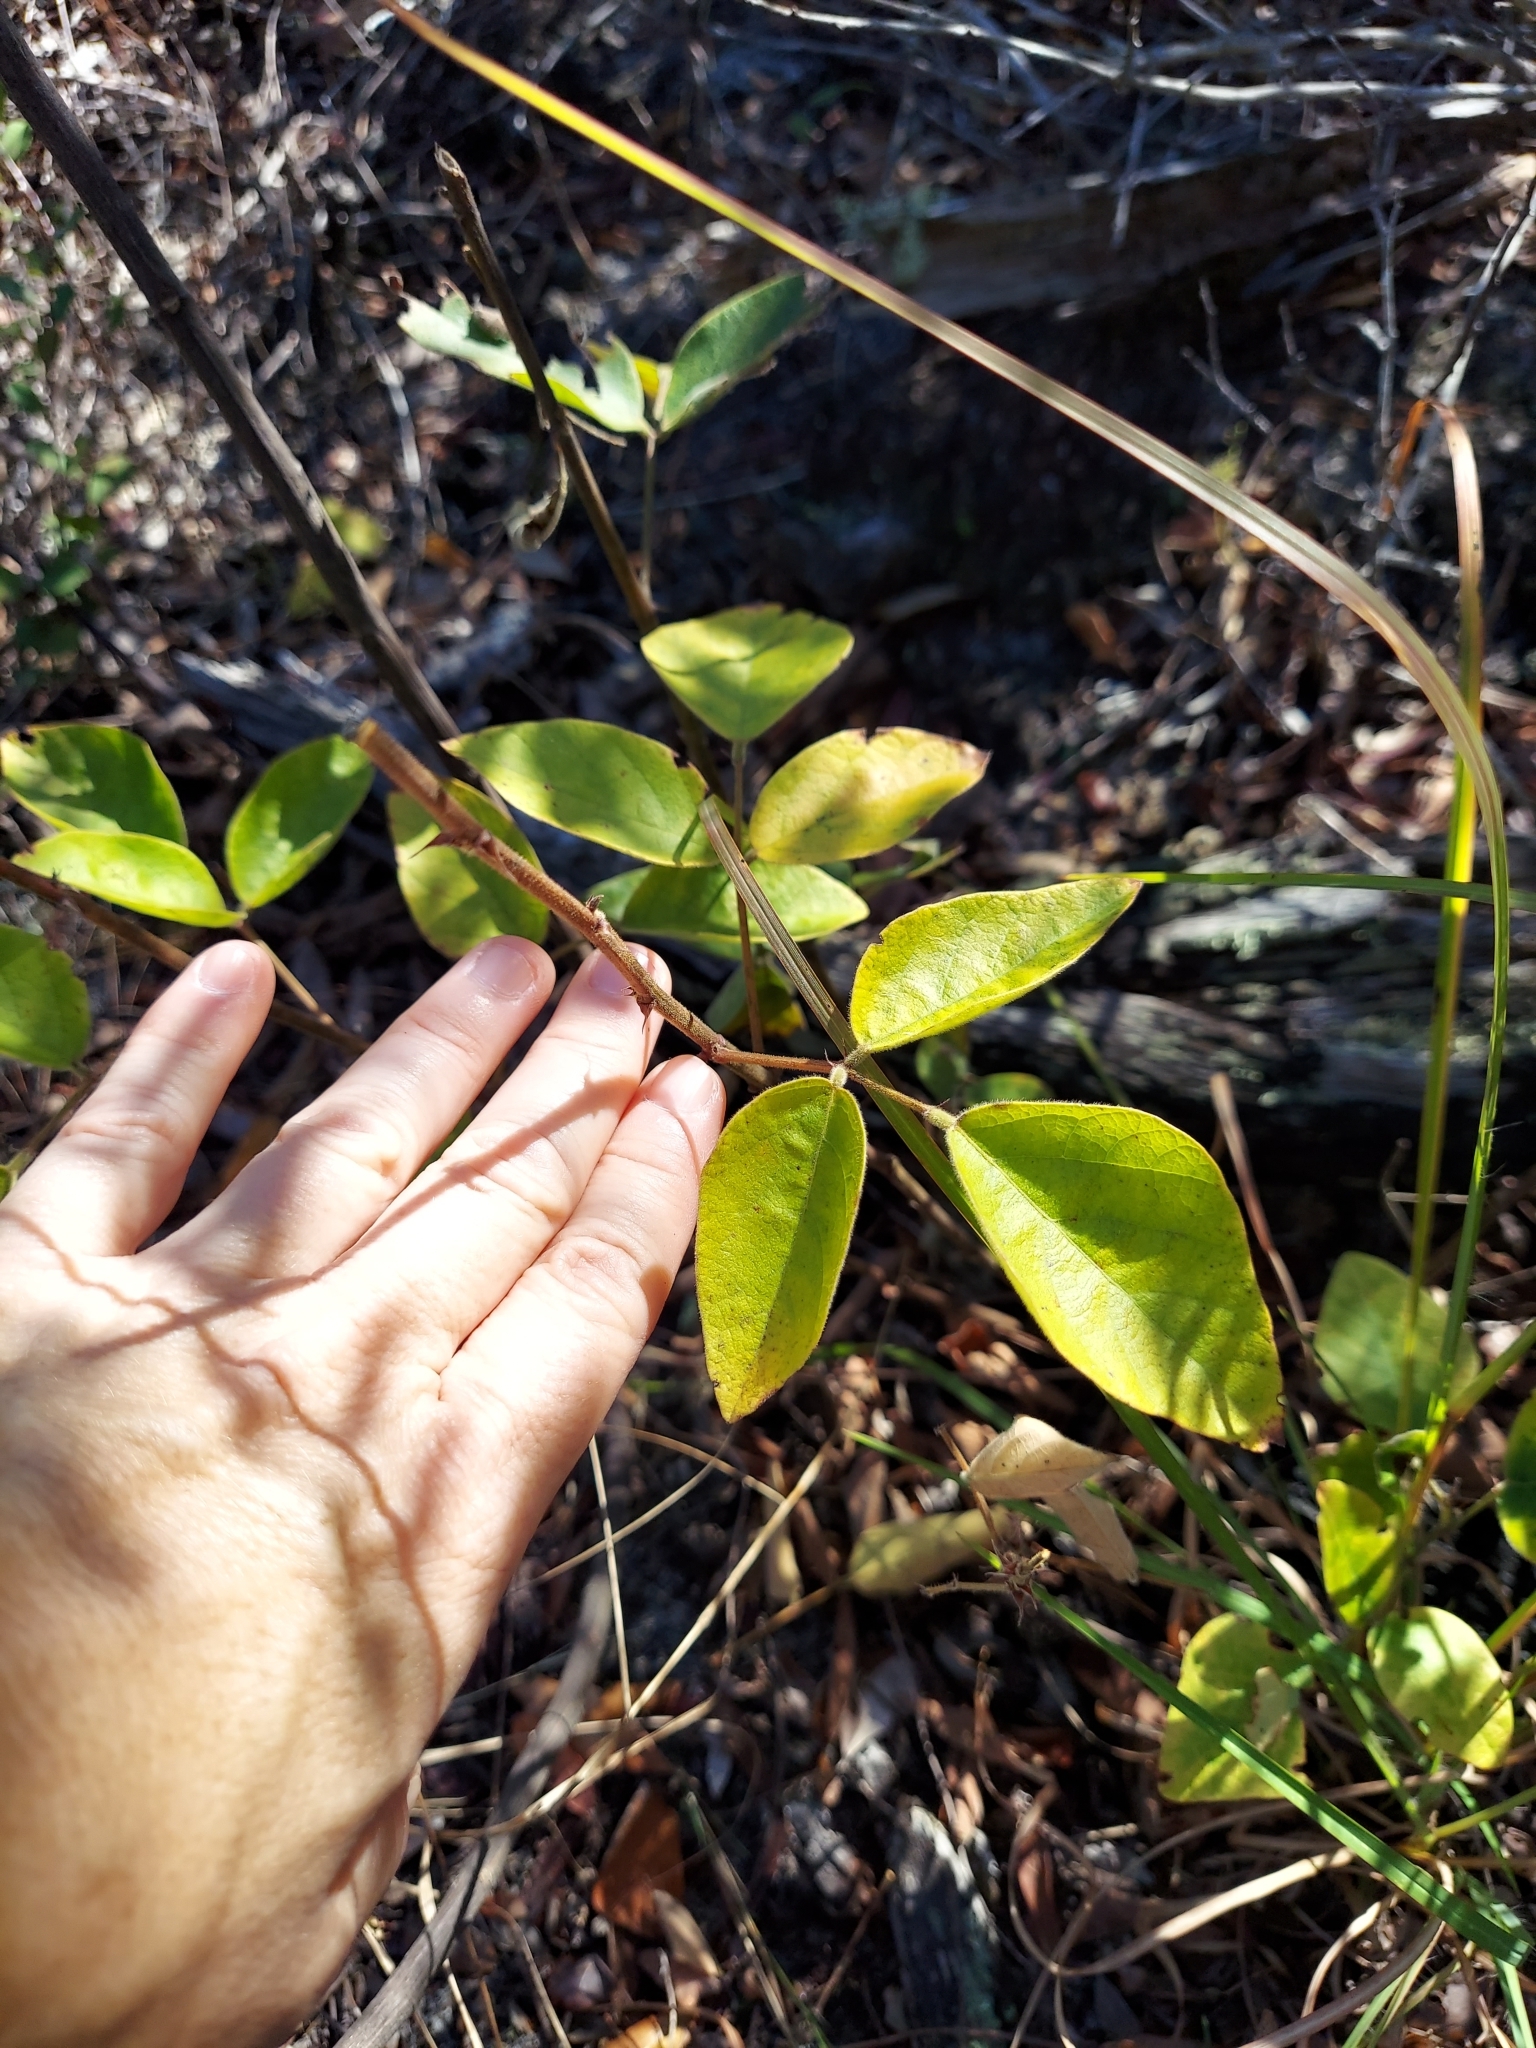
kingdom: Plantae
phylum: Tracheophyta
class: Magnoliopsida
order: Fabales
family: Fabaceae
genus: Desmodium
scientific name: Desmodium floridanum
